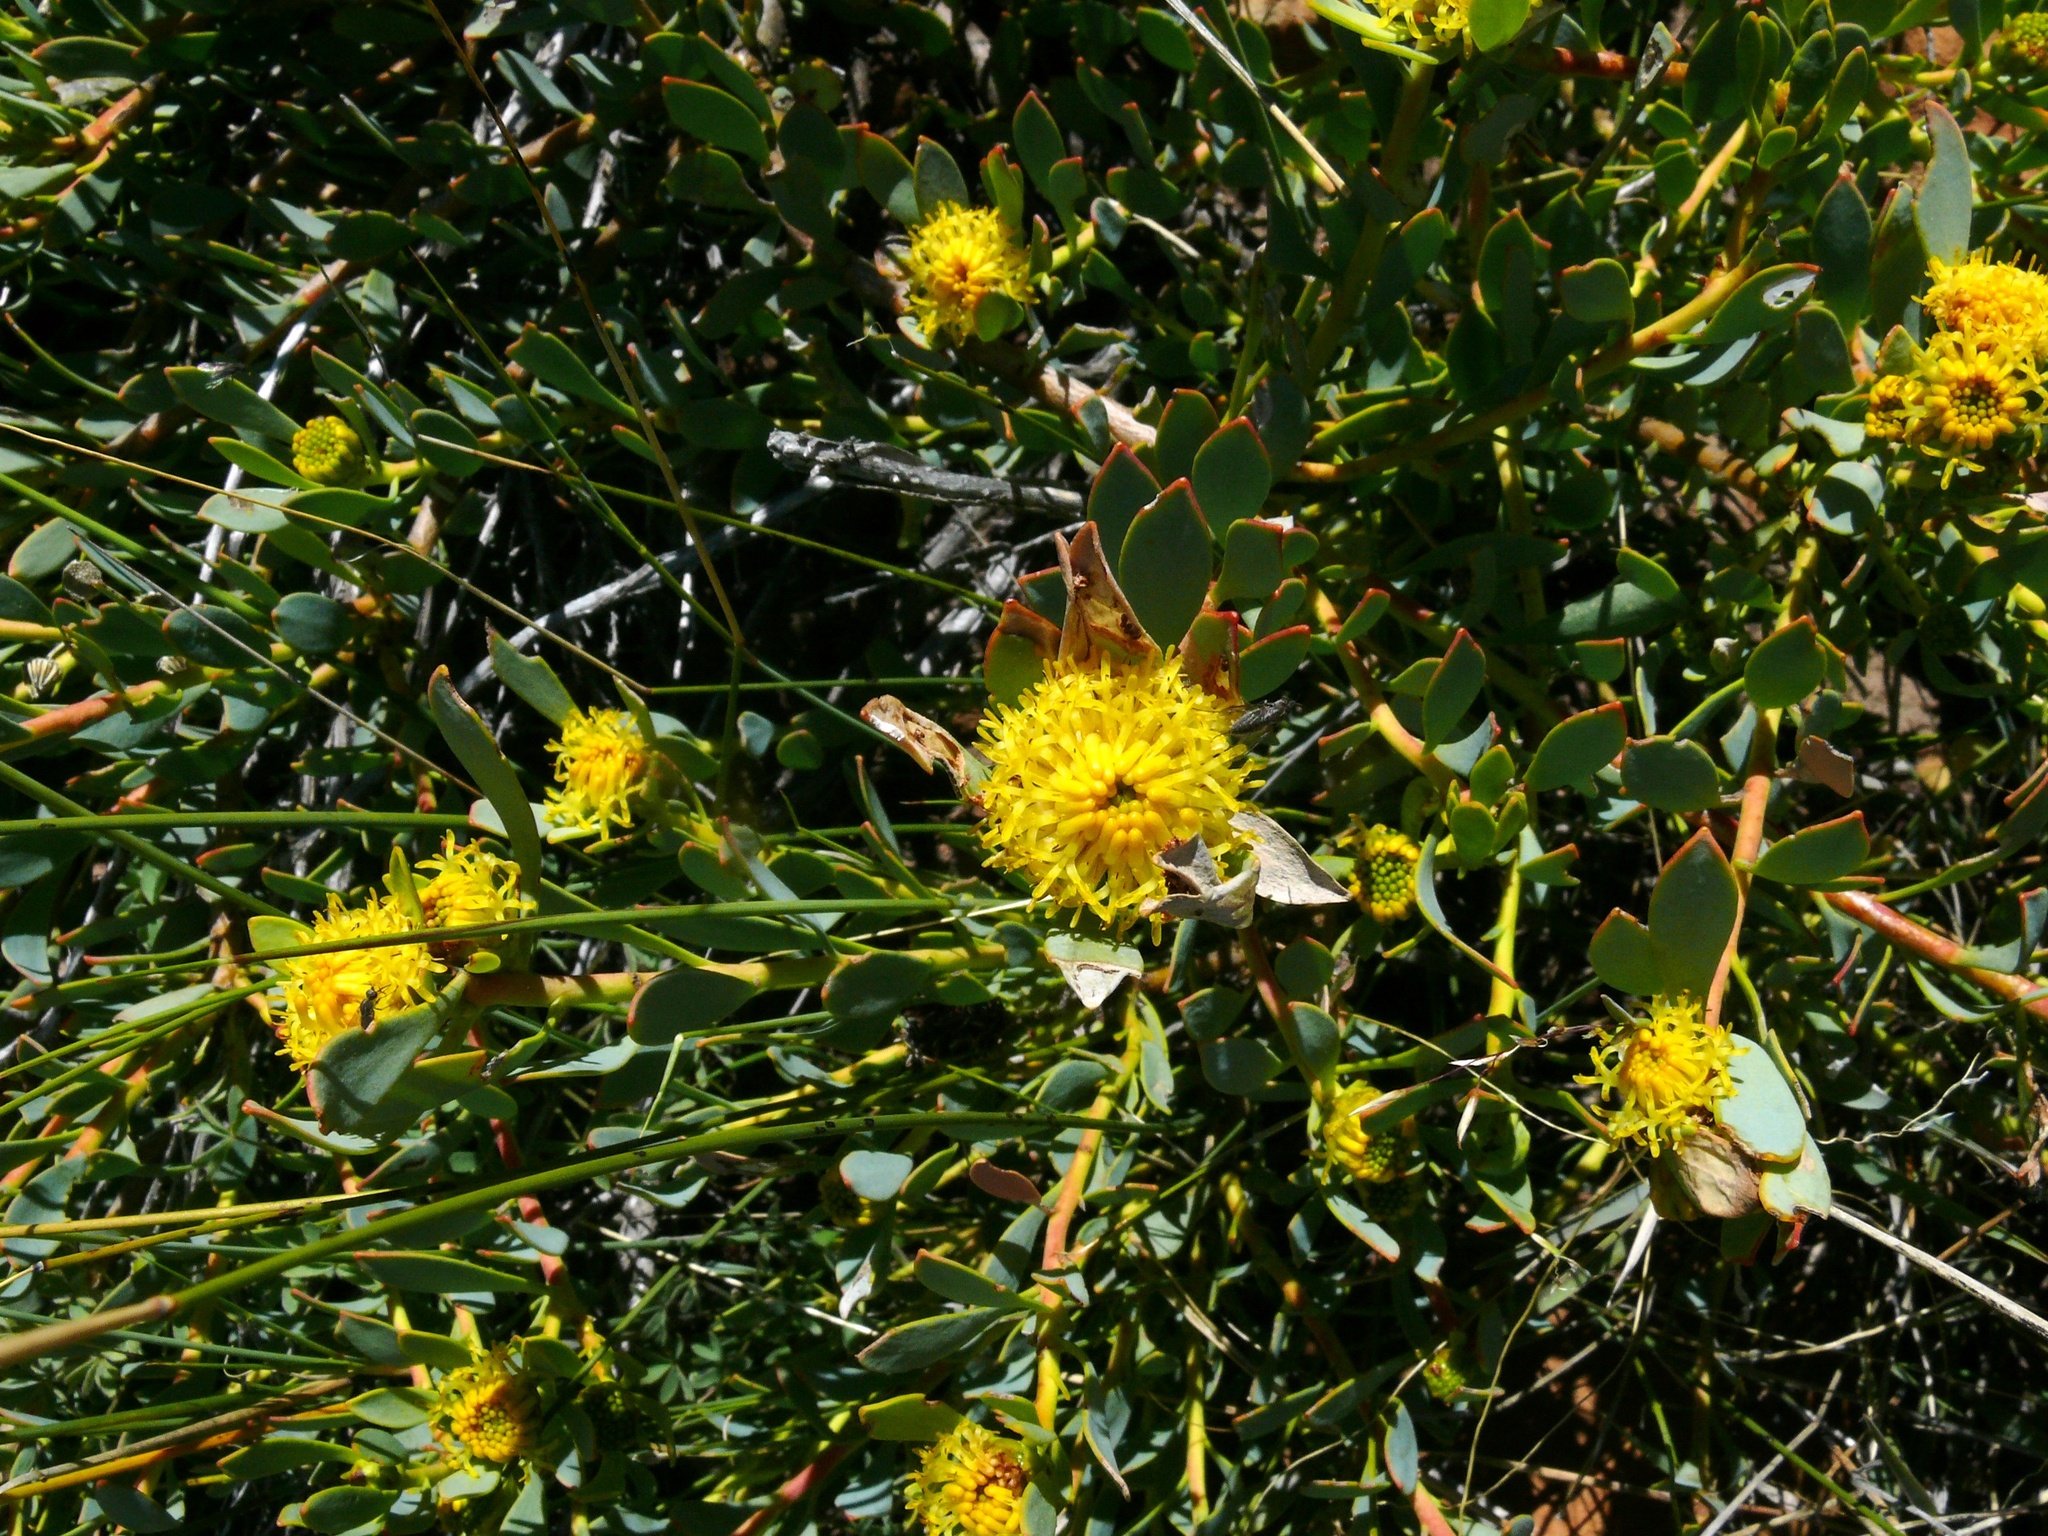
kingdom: Plantae
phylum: Tracheophyta
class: Magnoliopsida
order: Proteales
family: Proteaceae
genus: Leucadendron
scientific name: Leucadendron glaberrimum
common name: Common oily conebush
